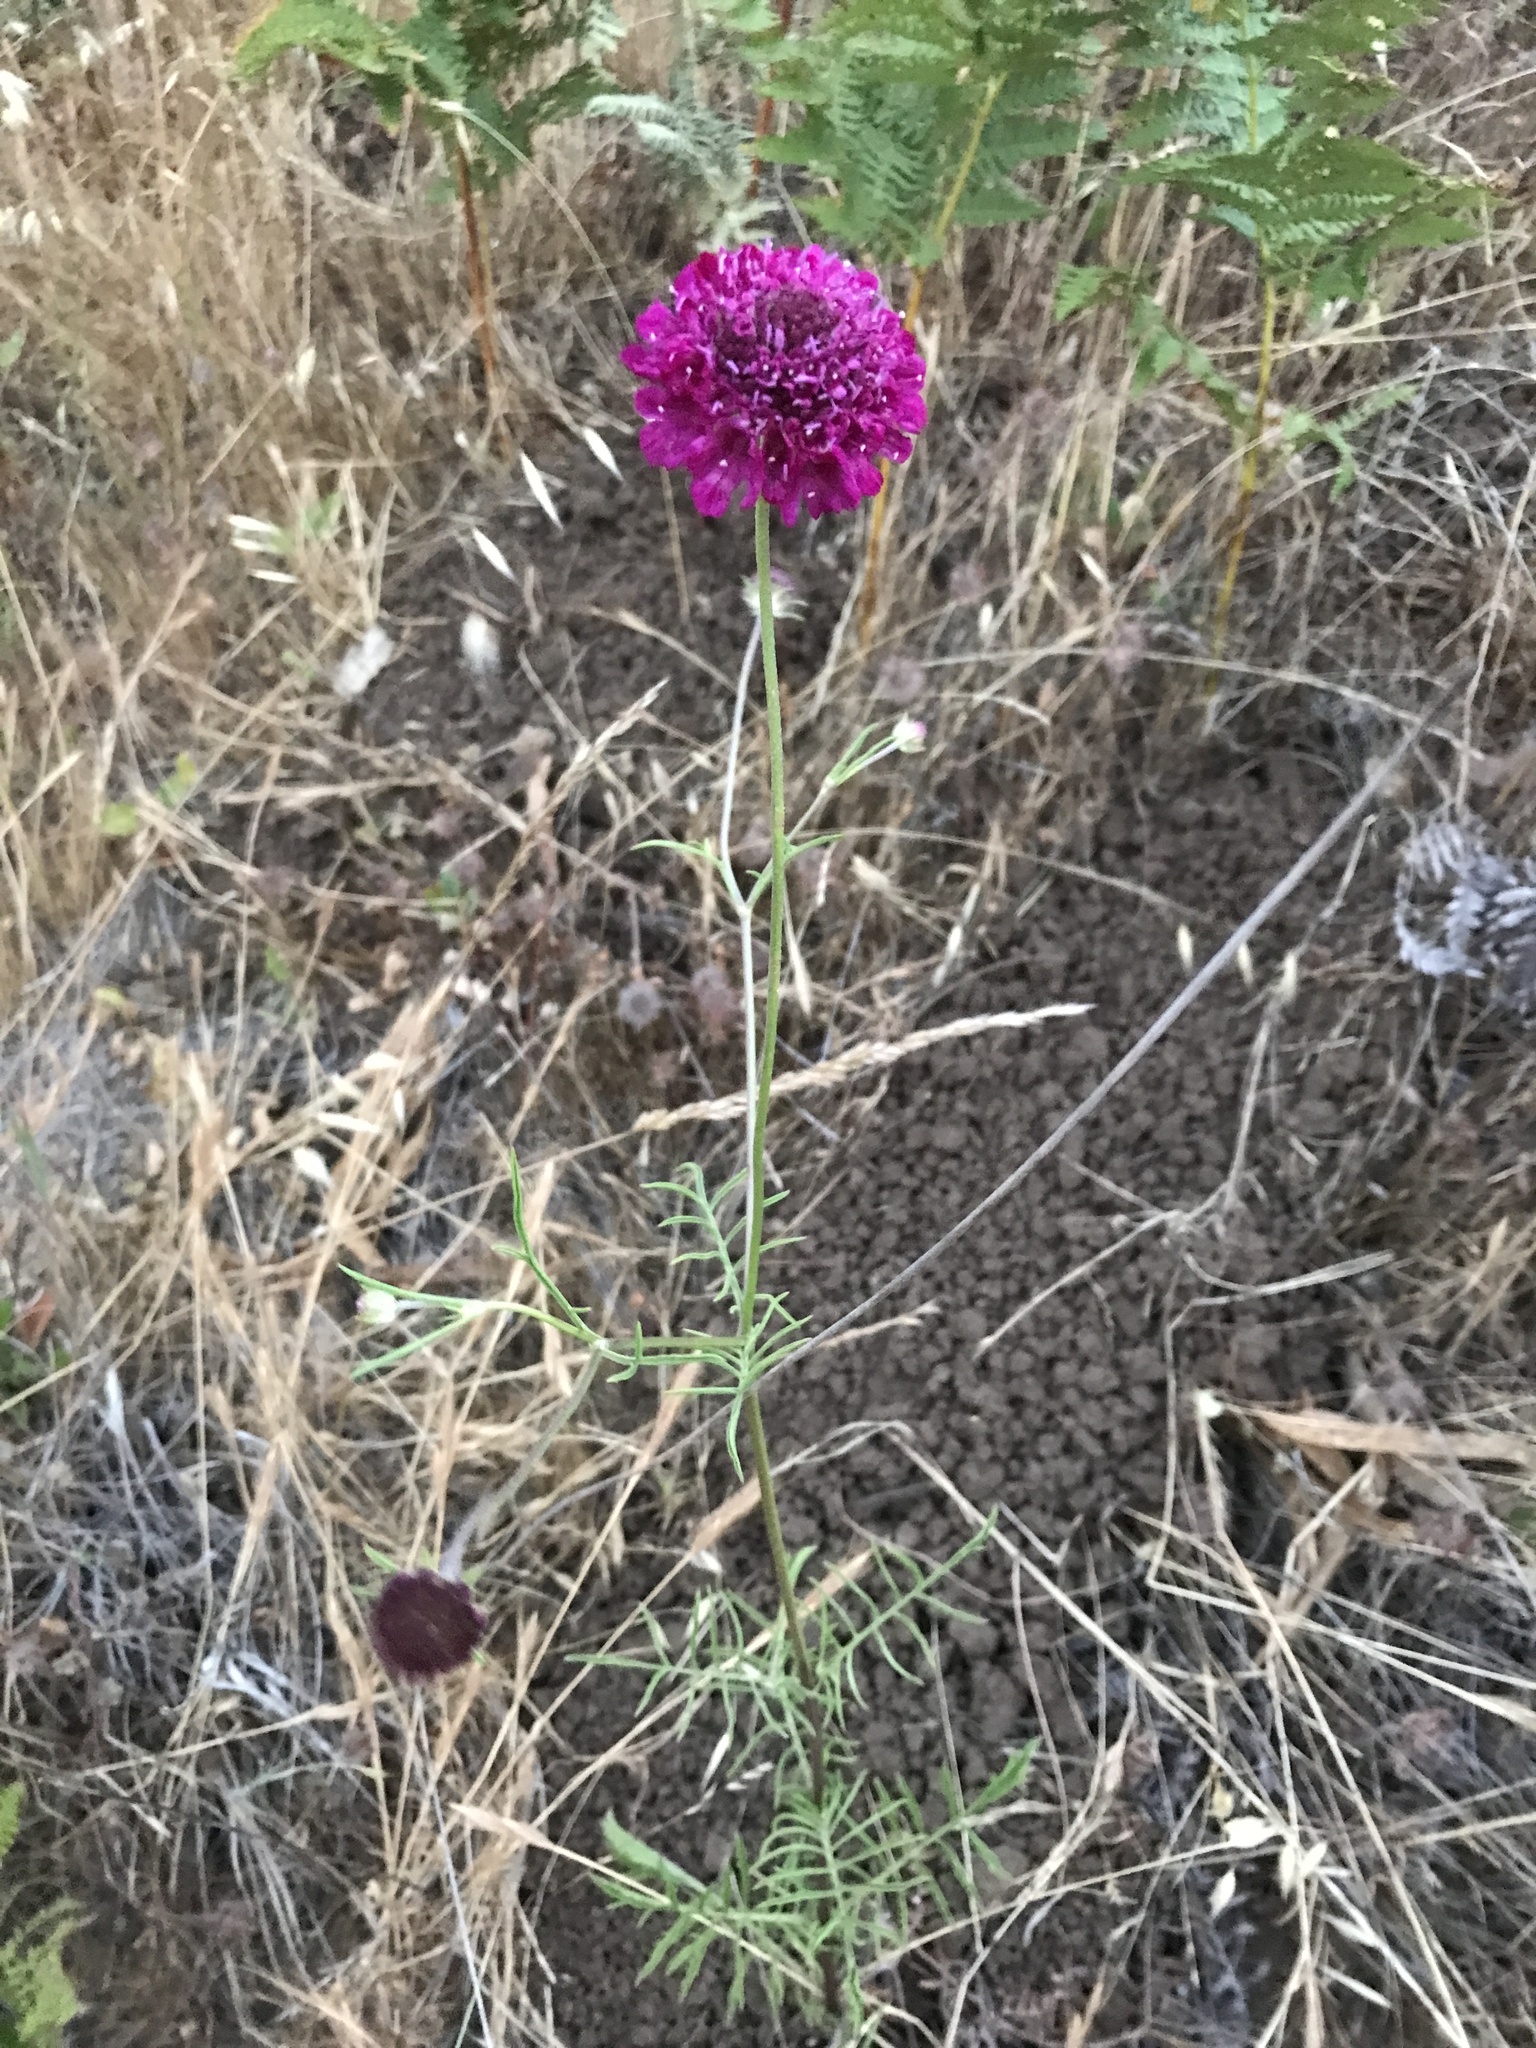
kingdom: Plantae
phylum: Tracheophyta
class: Magnoliopsida
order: Dipsacales
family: Caprifoliaceae
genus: Sixalix
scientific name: Sixalix atropurpurea
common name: Sweet scabious
